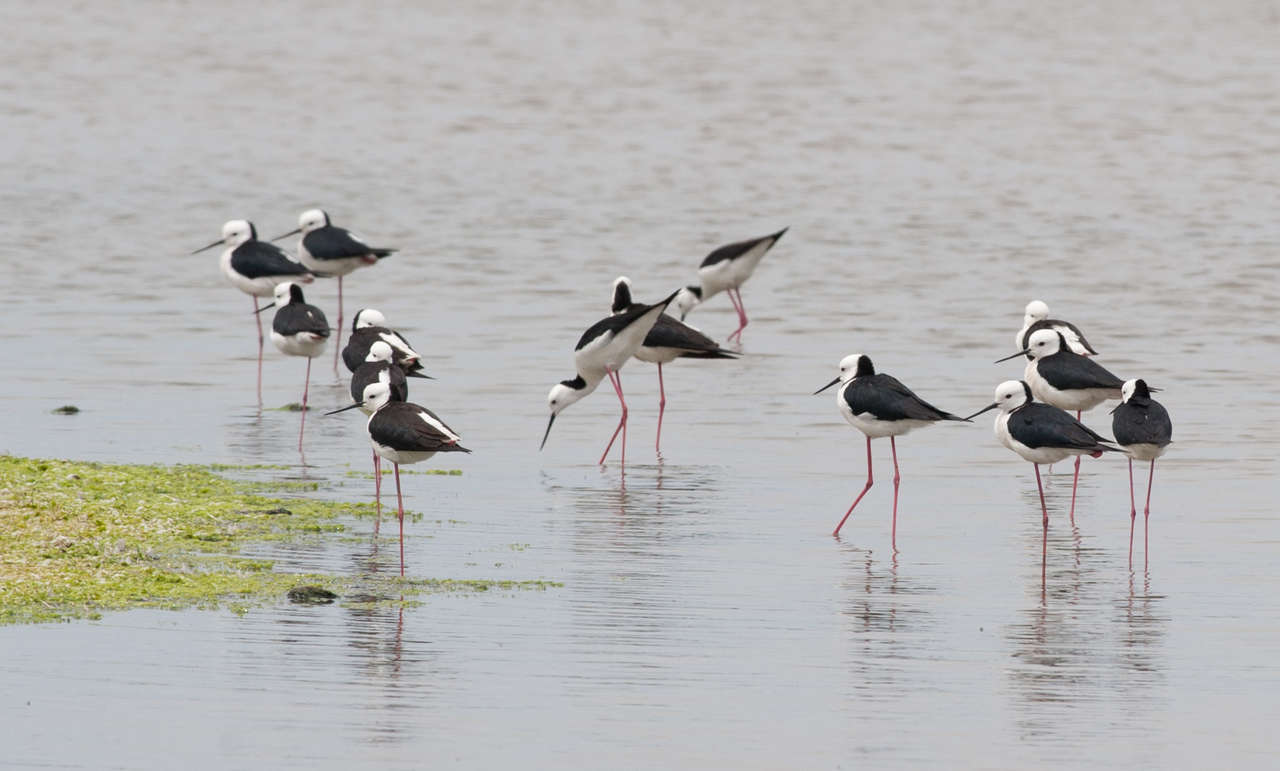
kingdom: Animalia
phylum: Chordata
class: Aves
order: Charadriiformes
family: Recurvirostridae
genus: Himantopus
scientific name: Himantopus leucocephalus
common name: White-headed stilt
